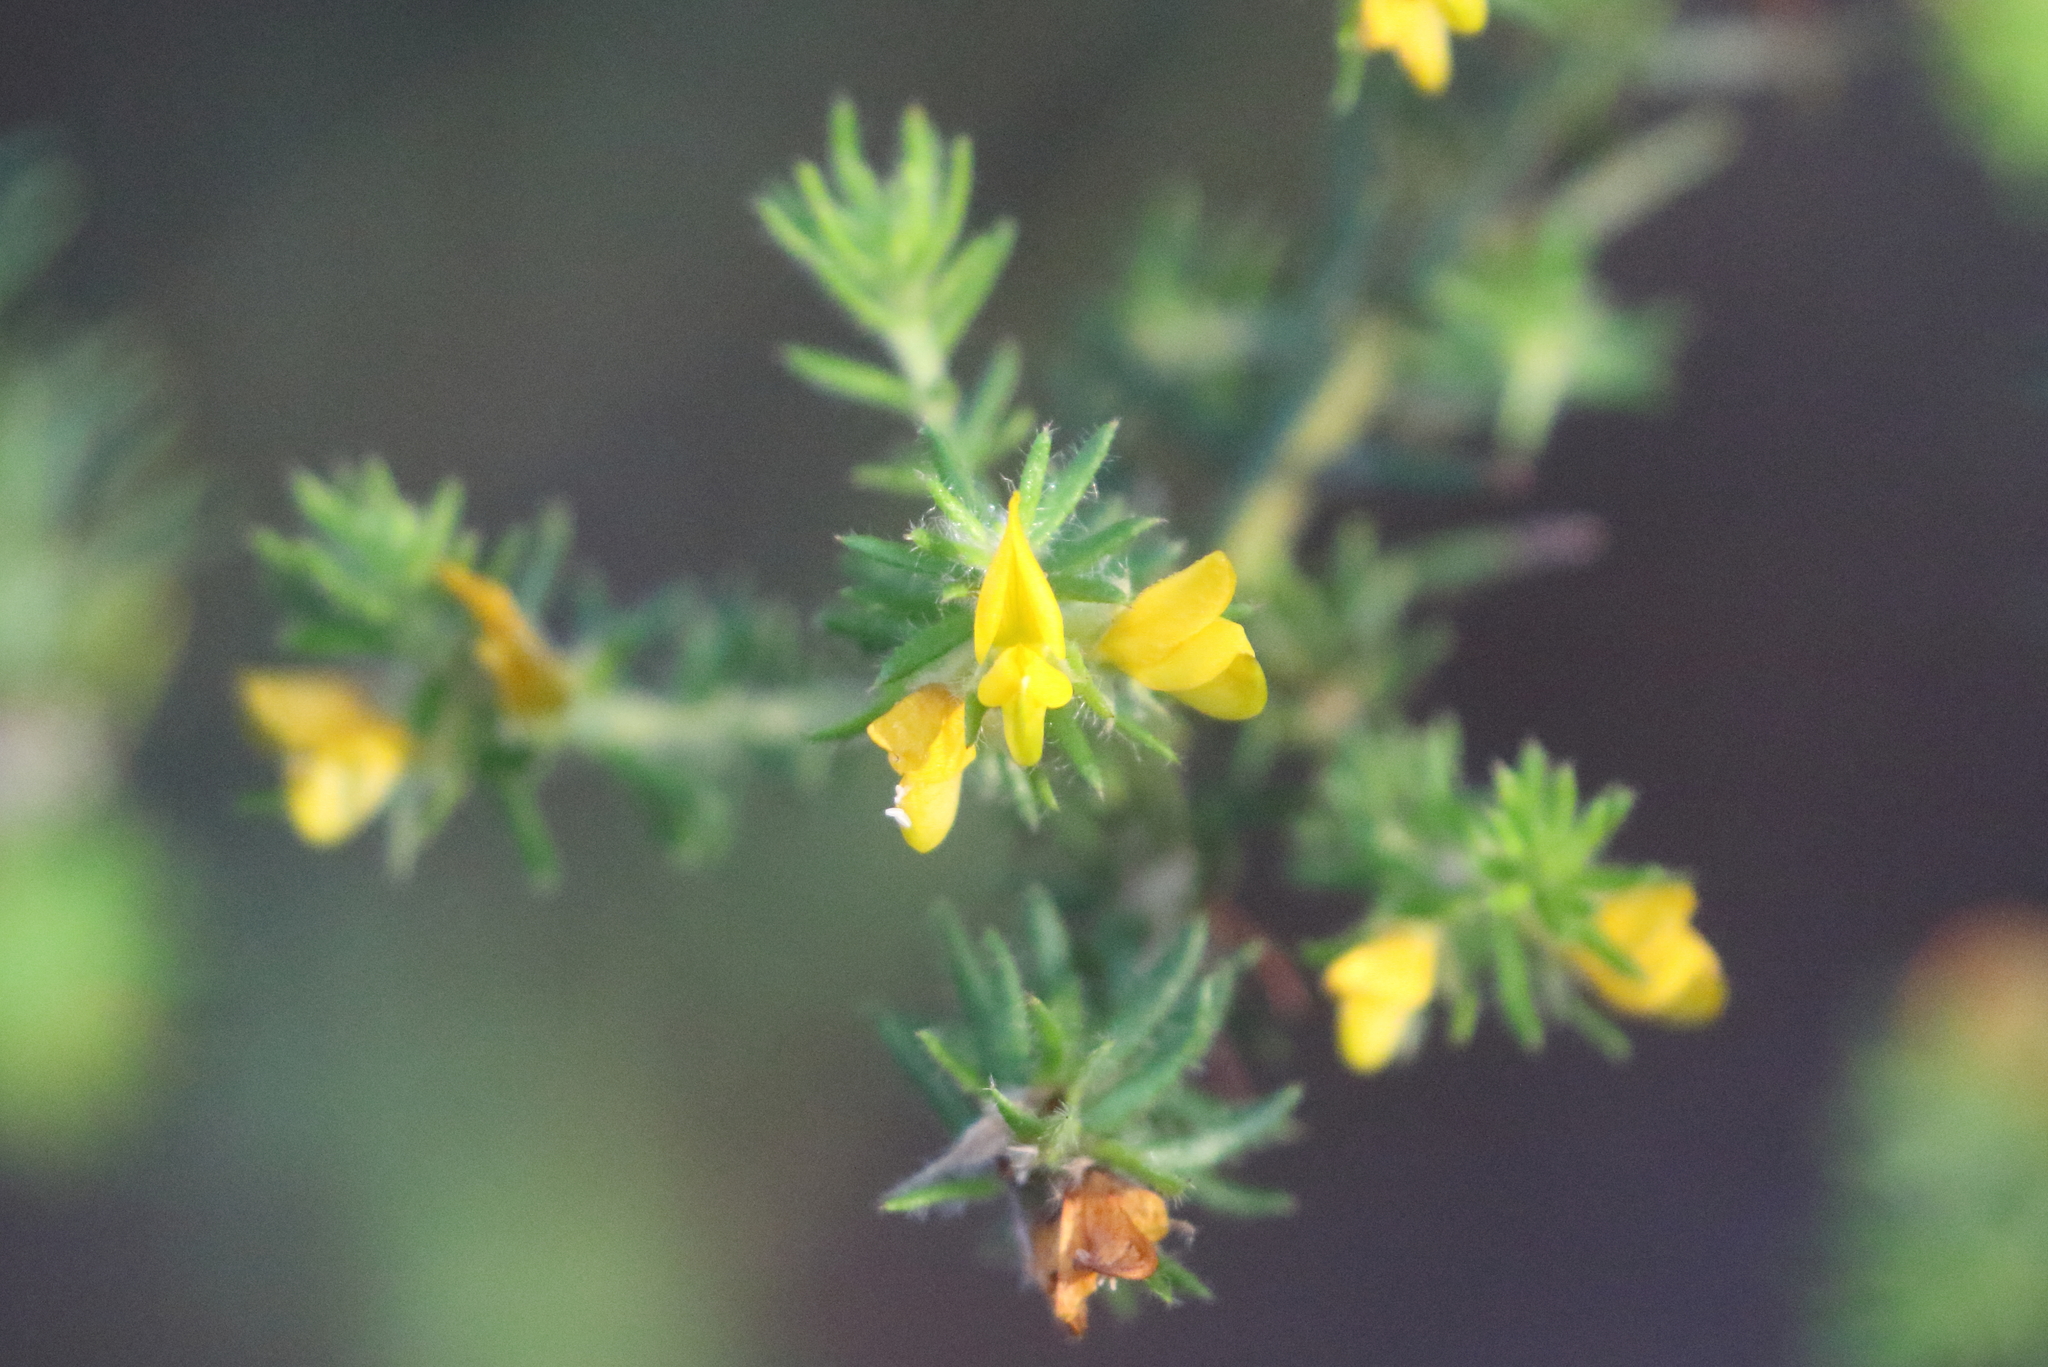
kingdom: Plantae
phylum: Tracheophyta
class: Magnoliopsida
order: Fabales
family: Fabaceae
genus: Phyllota
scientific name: Phyllota phylicoides
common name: Heath phyllota
